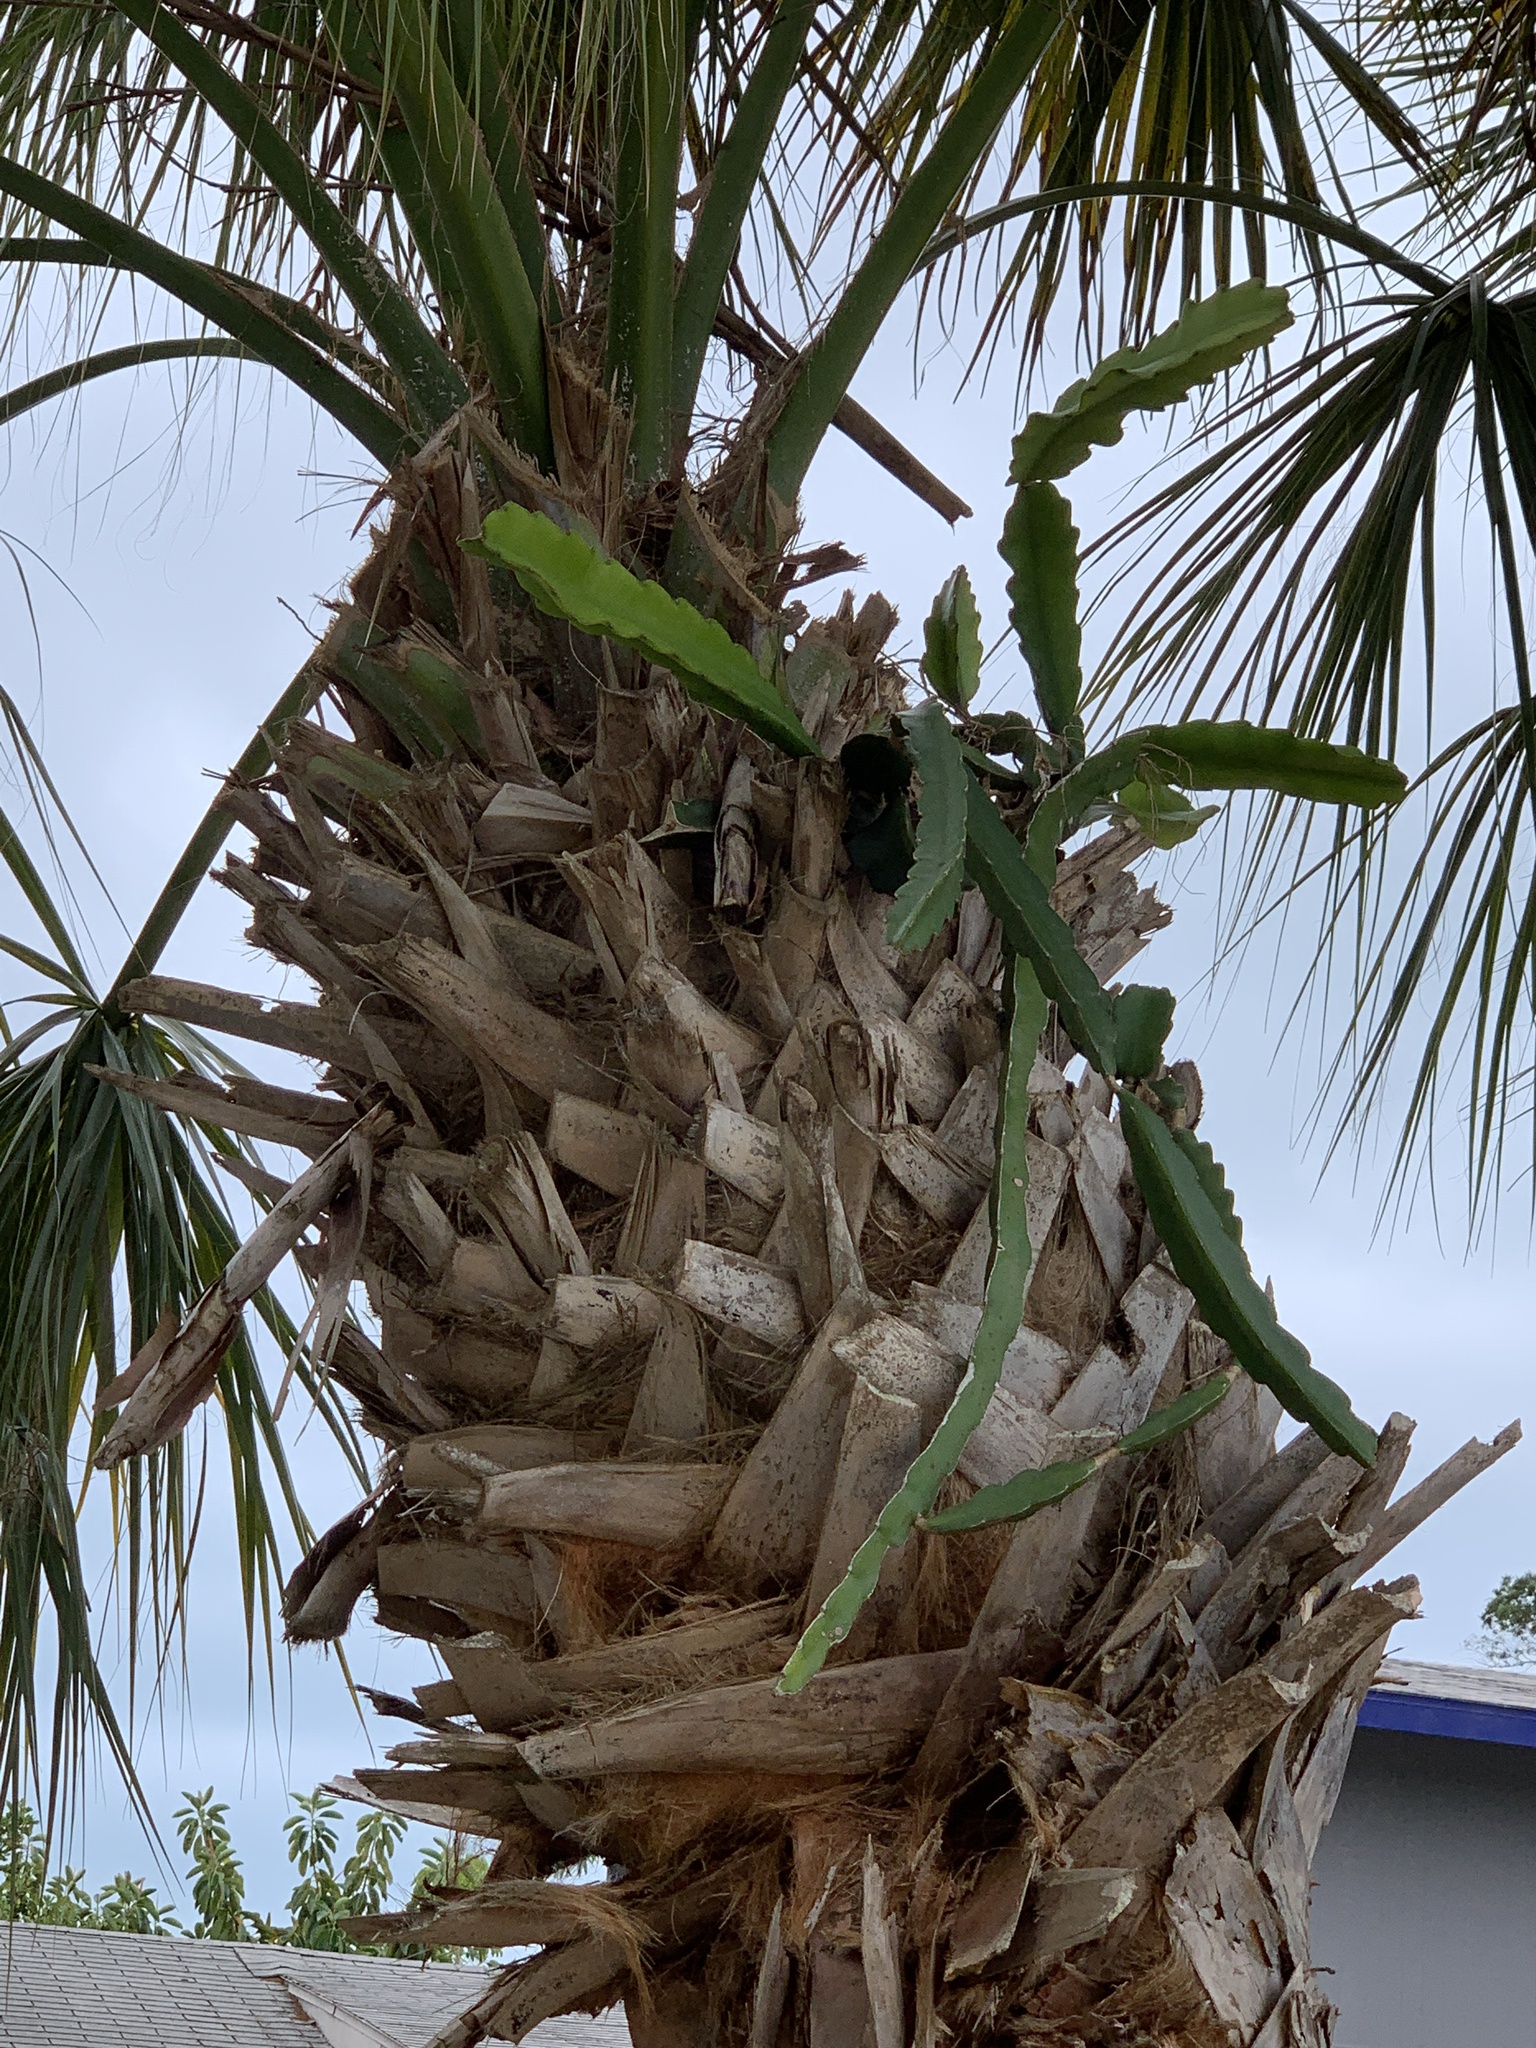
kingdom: Plantae
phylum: Tracheophyta
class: Magnoliopsida
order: Caryophyllales
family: Cactaceae
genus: Selenicereus
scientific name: Selenicereus undatus
